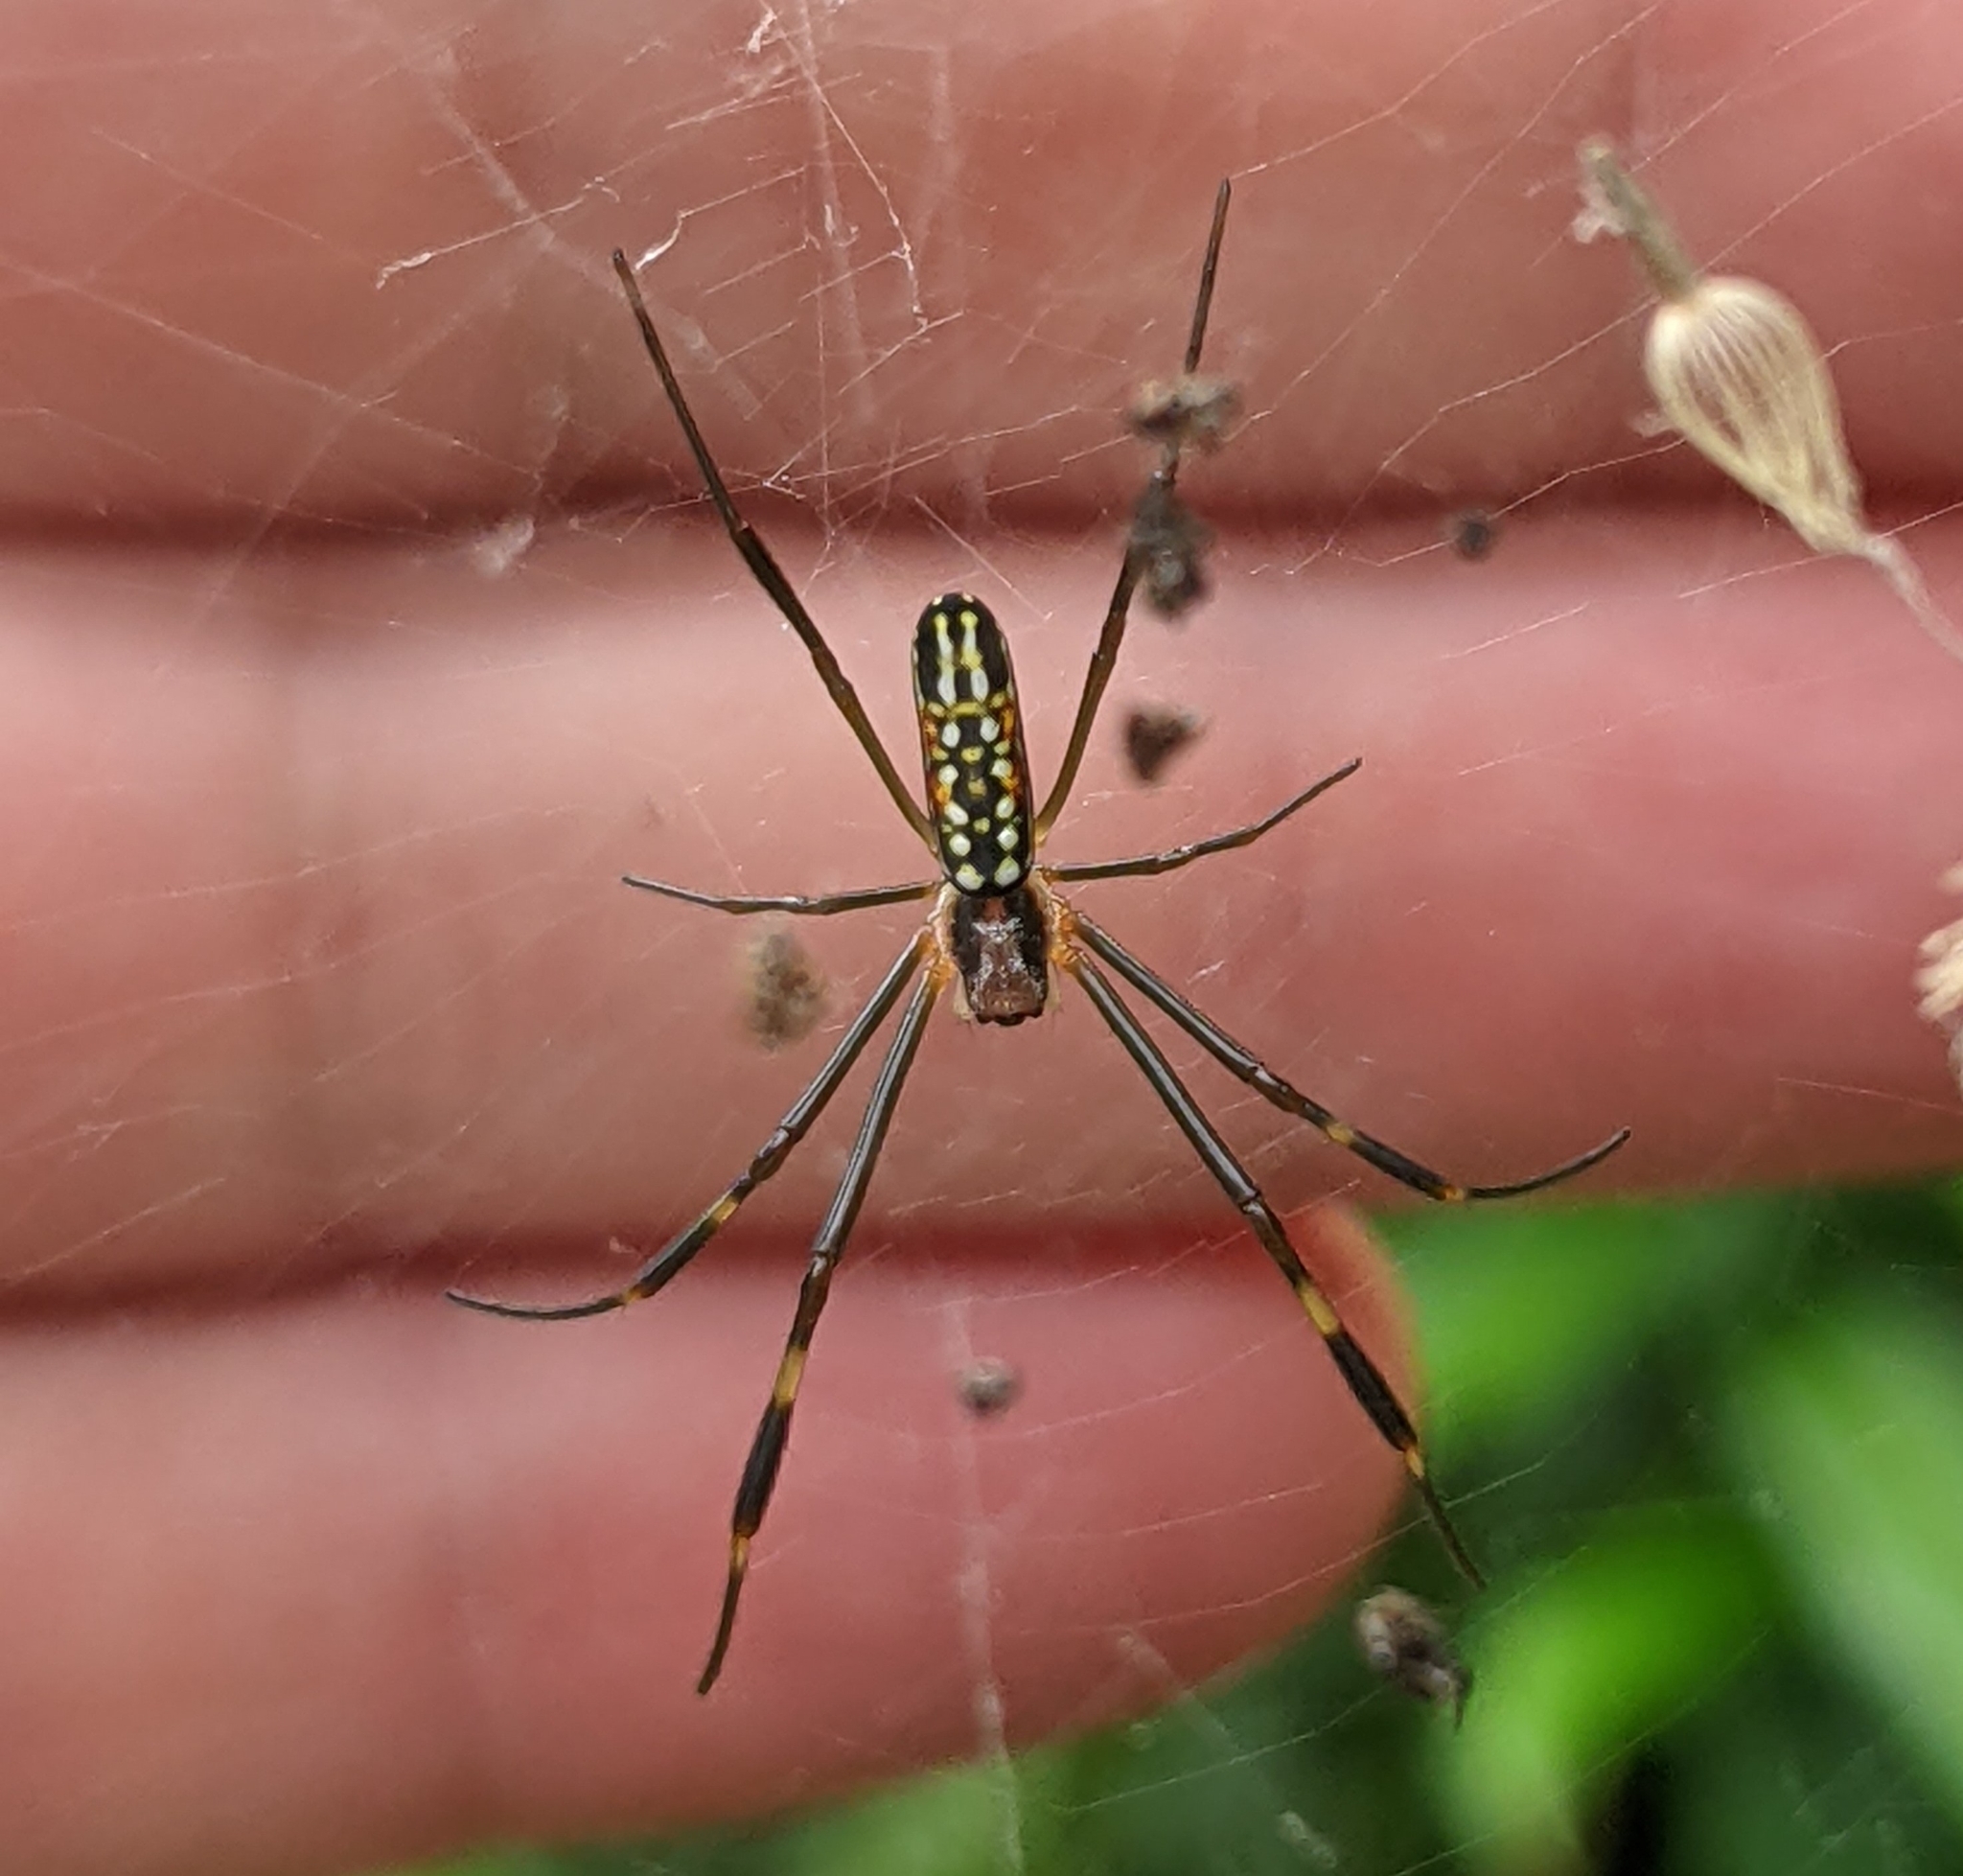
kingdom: Animalia
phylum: Arthropoda
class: Arachnida
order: Araneae
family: Araneidae
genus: Trichonephila
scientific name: Trichonephila clavipes
